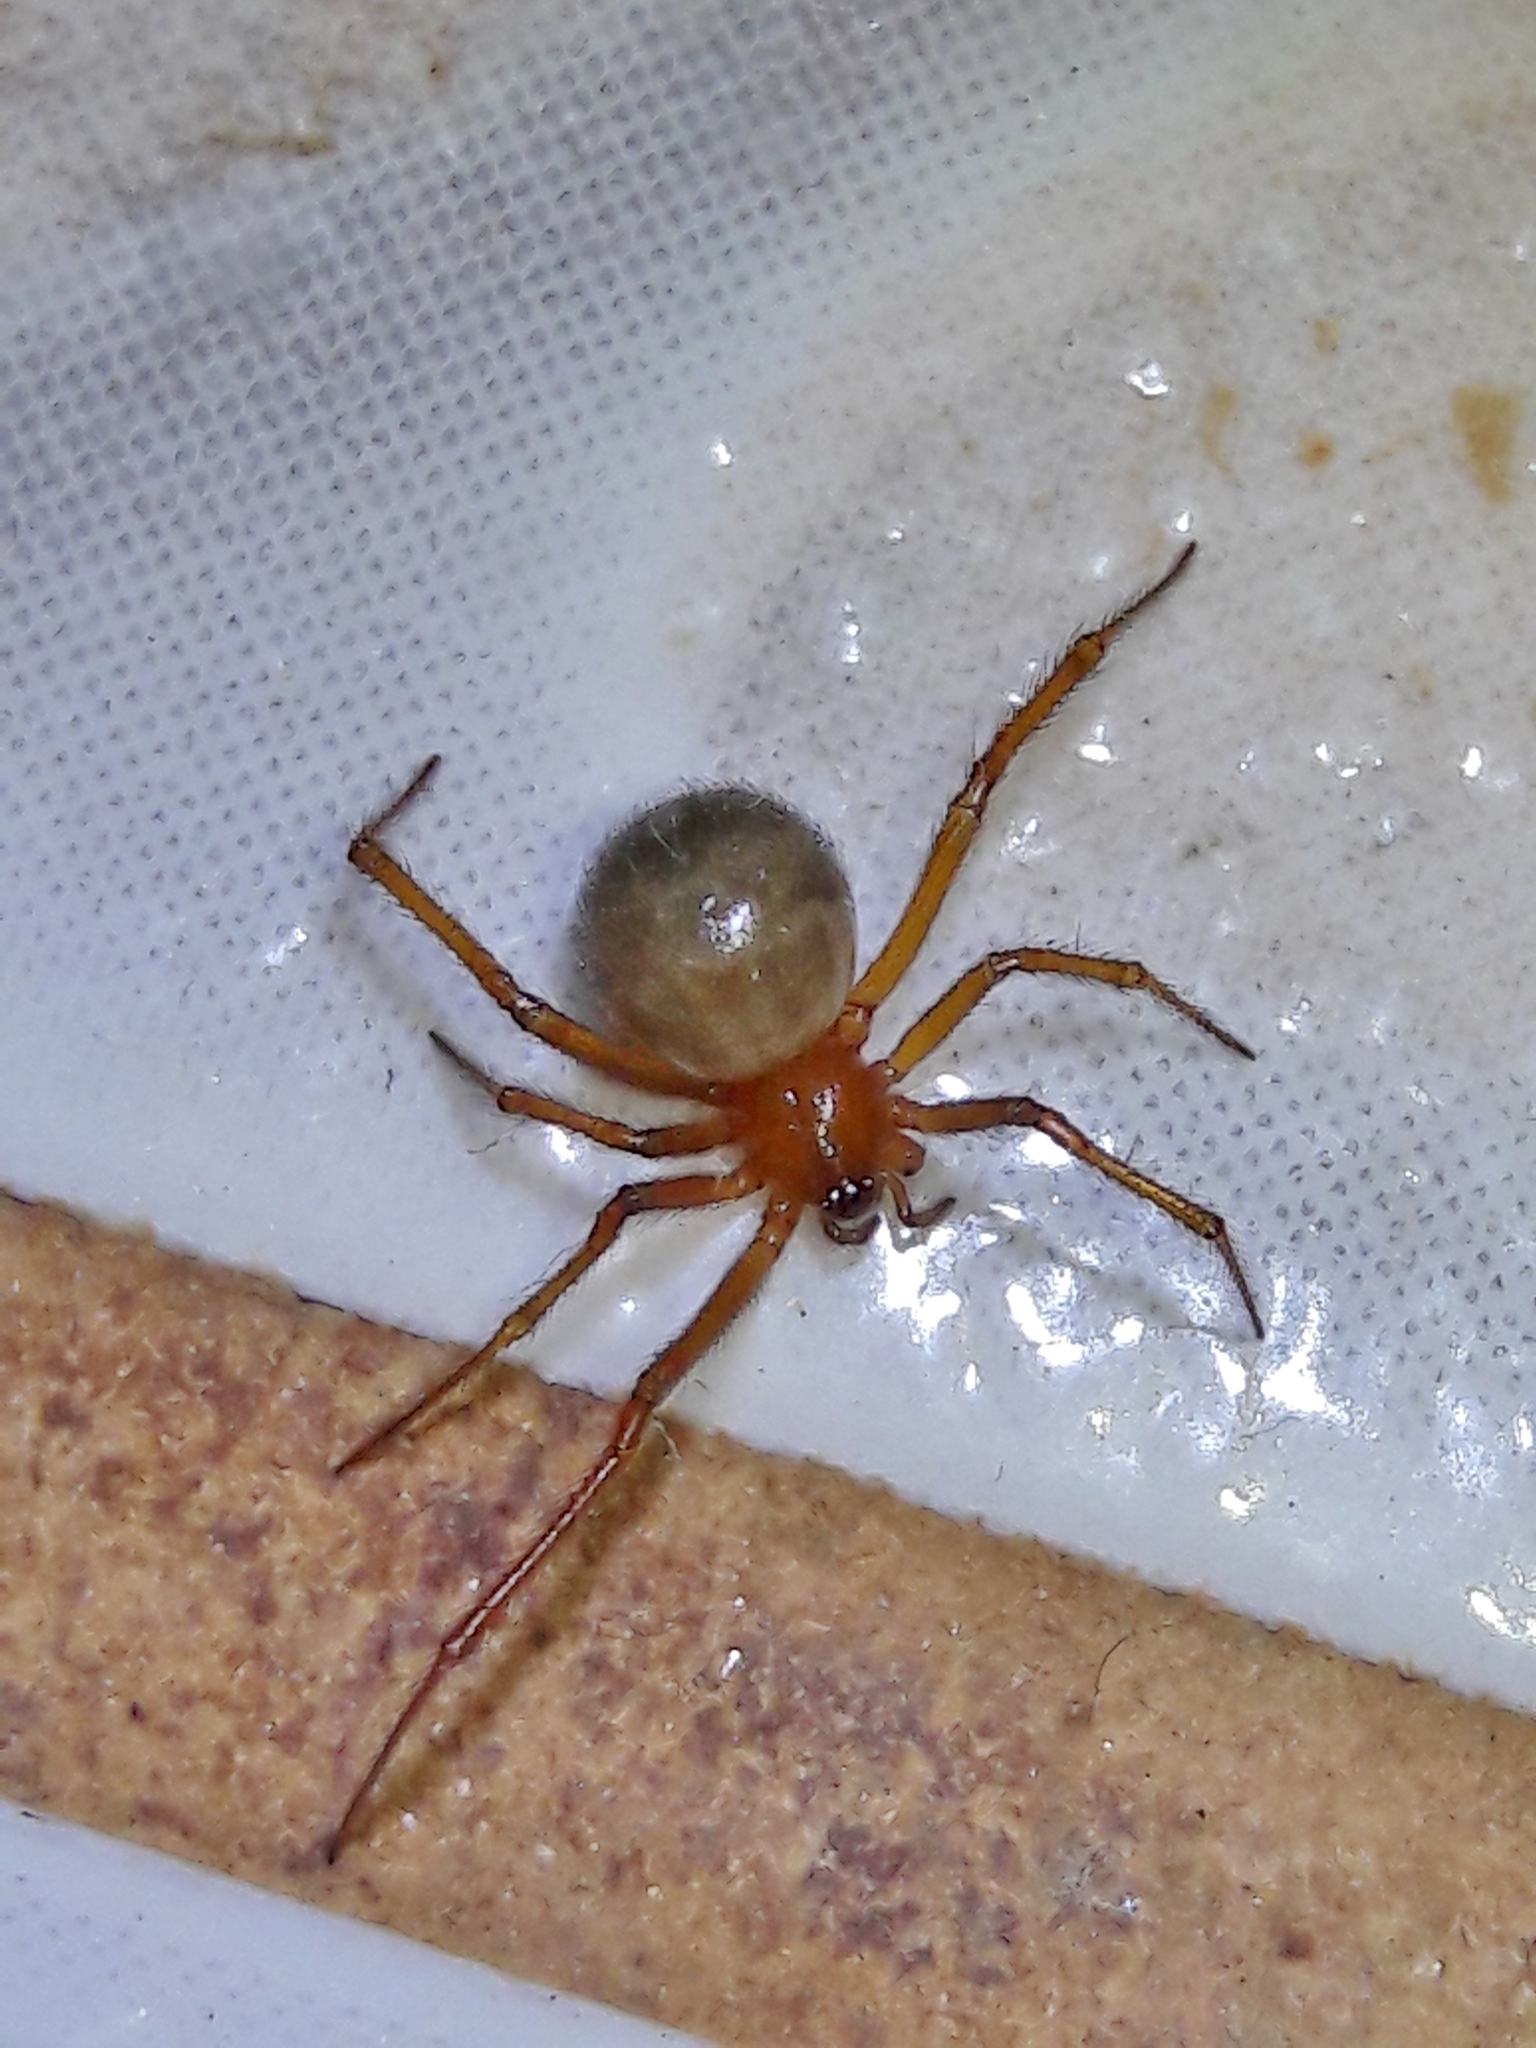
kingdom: Animalia
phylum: Arthropoda
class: Arachnida
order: Araneae
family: Theridiidae
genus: Nesticodes
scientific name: Nesticodes rufipes
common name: Cobweb spiders
